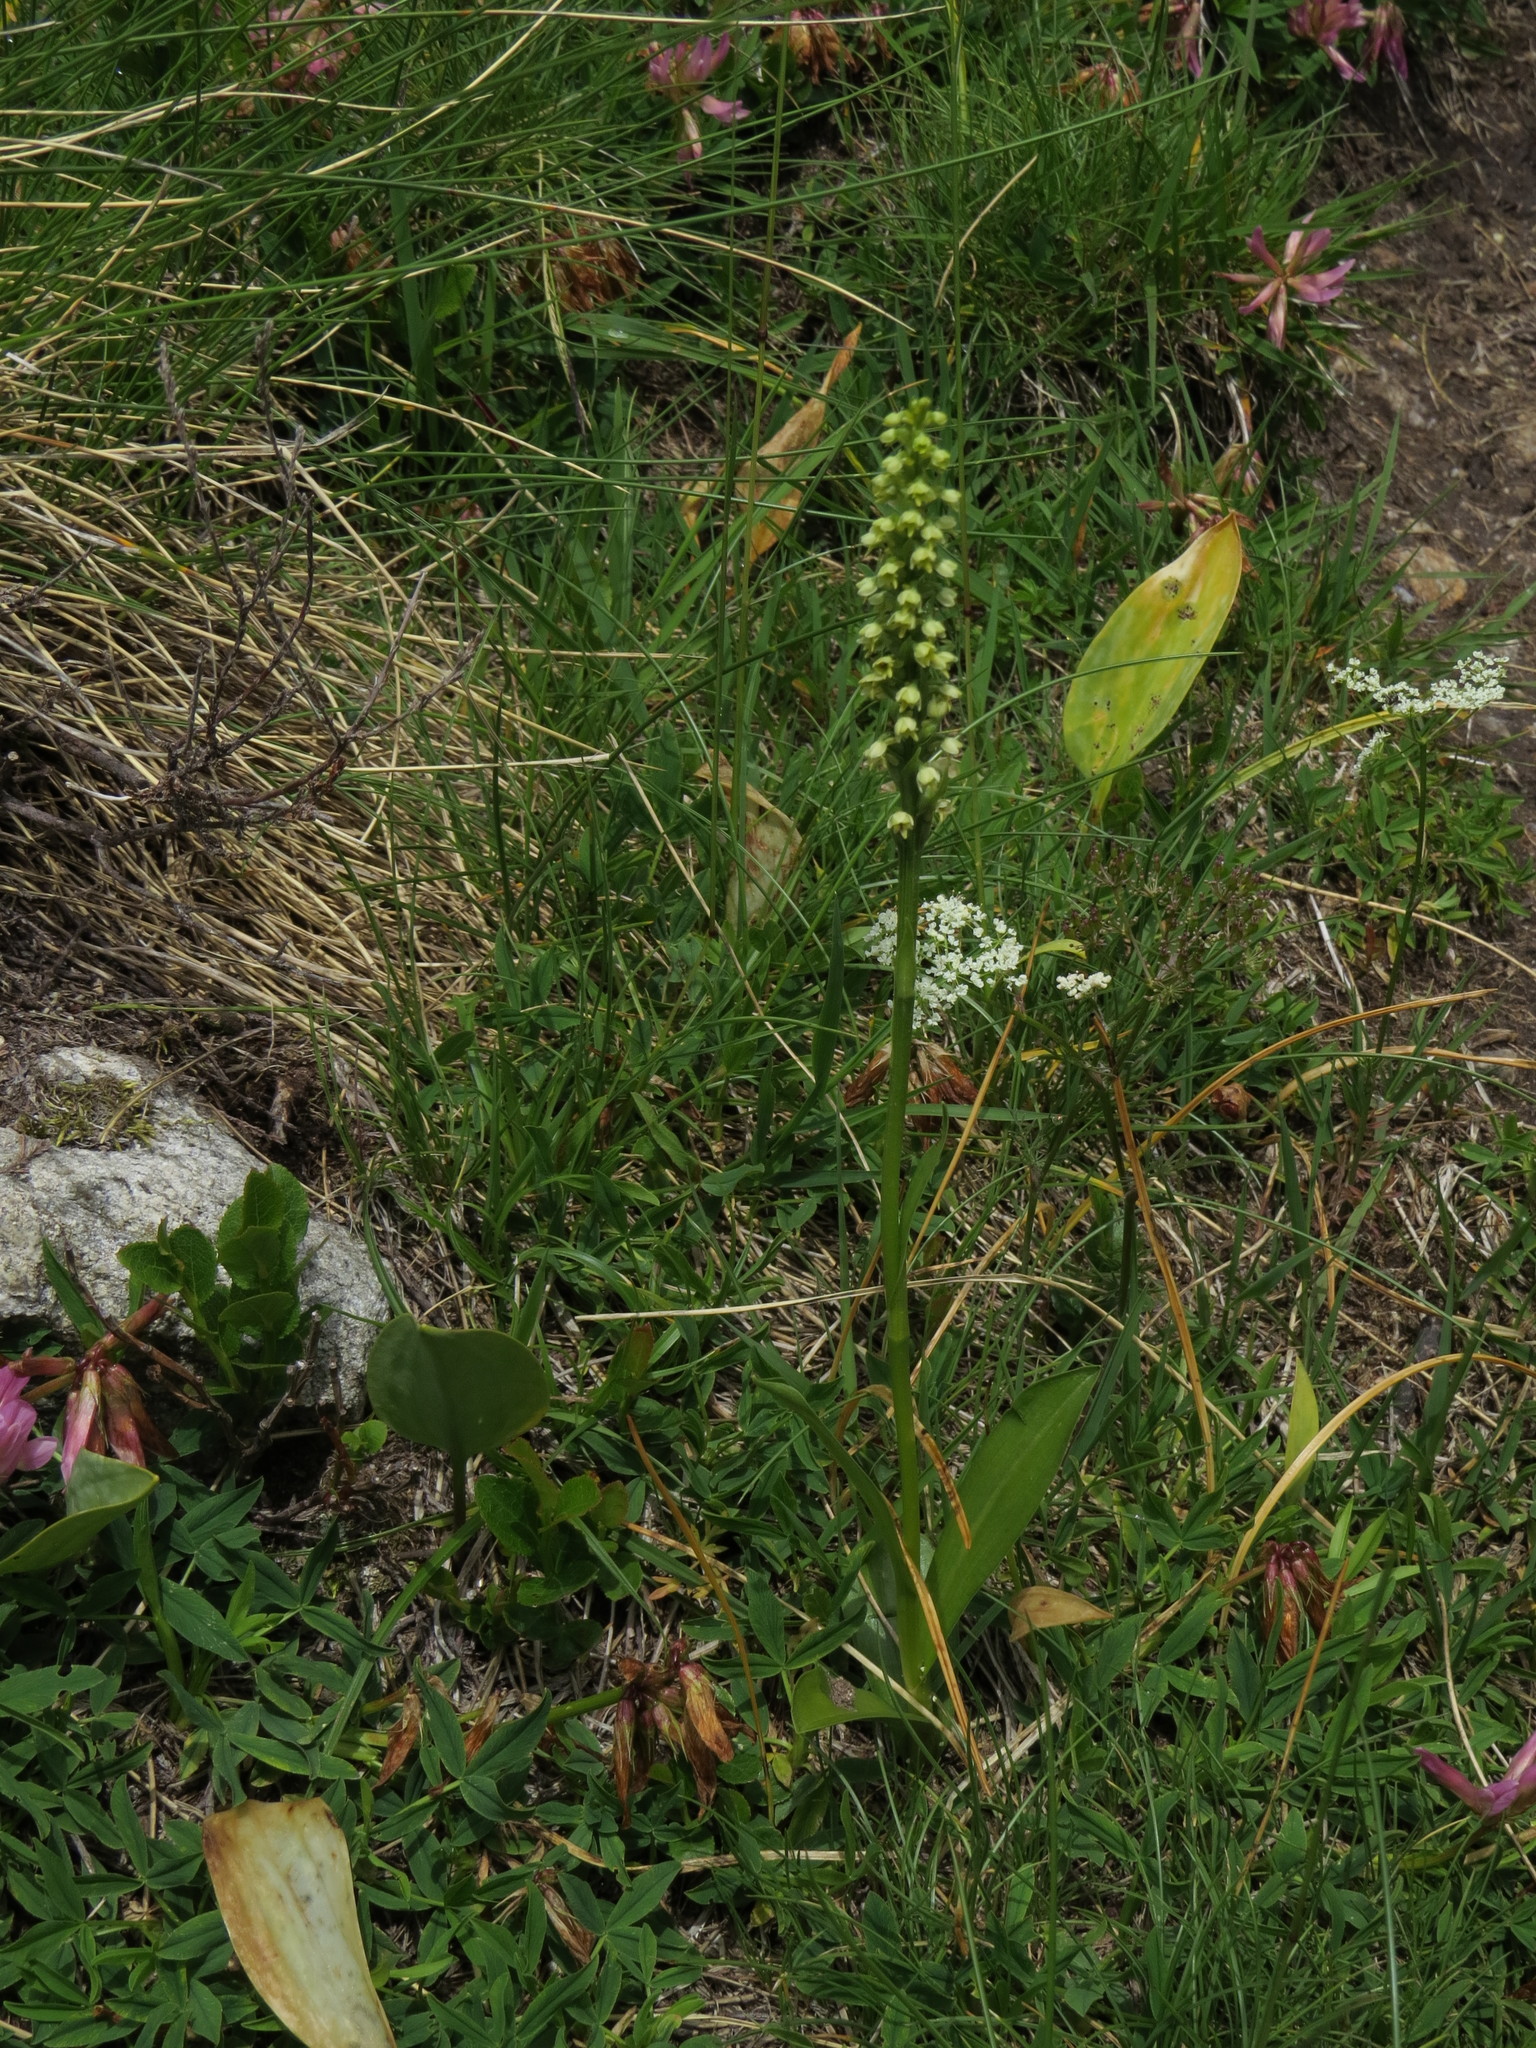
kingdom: Plantae
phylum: Tracheophyta
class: Liliopsida
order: Asparagales
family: Orchidaceae
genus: Pseudorchis
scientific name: Pseudorchis albida
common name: Small-white orchid
